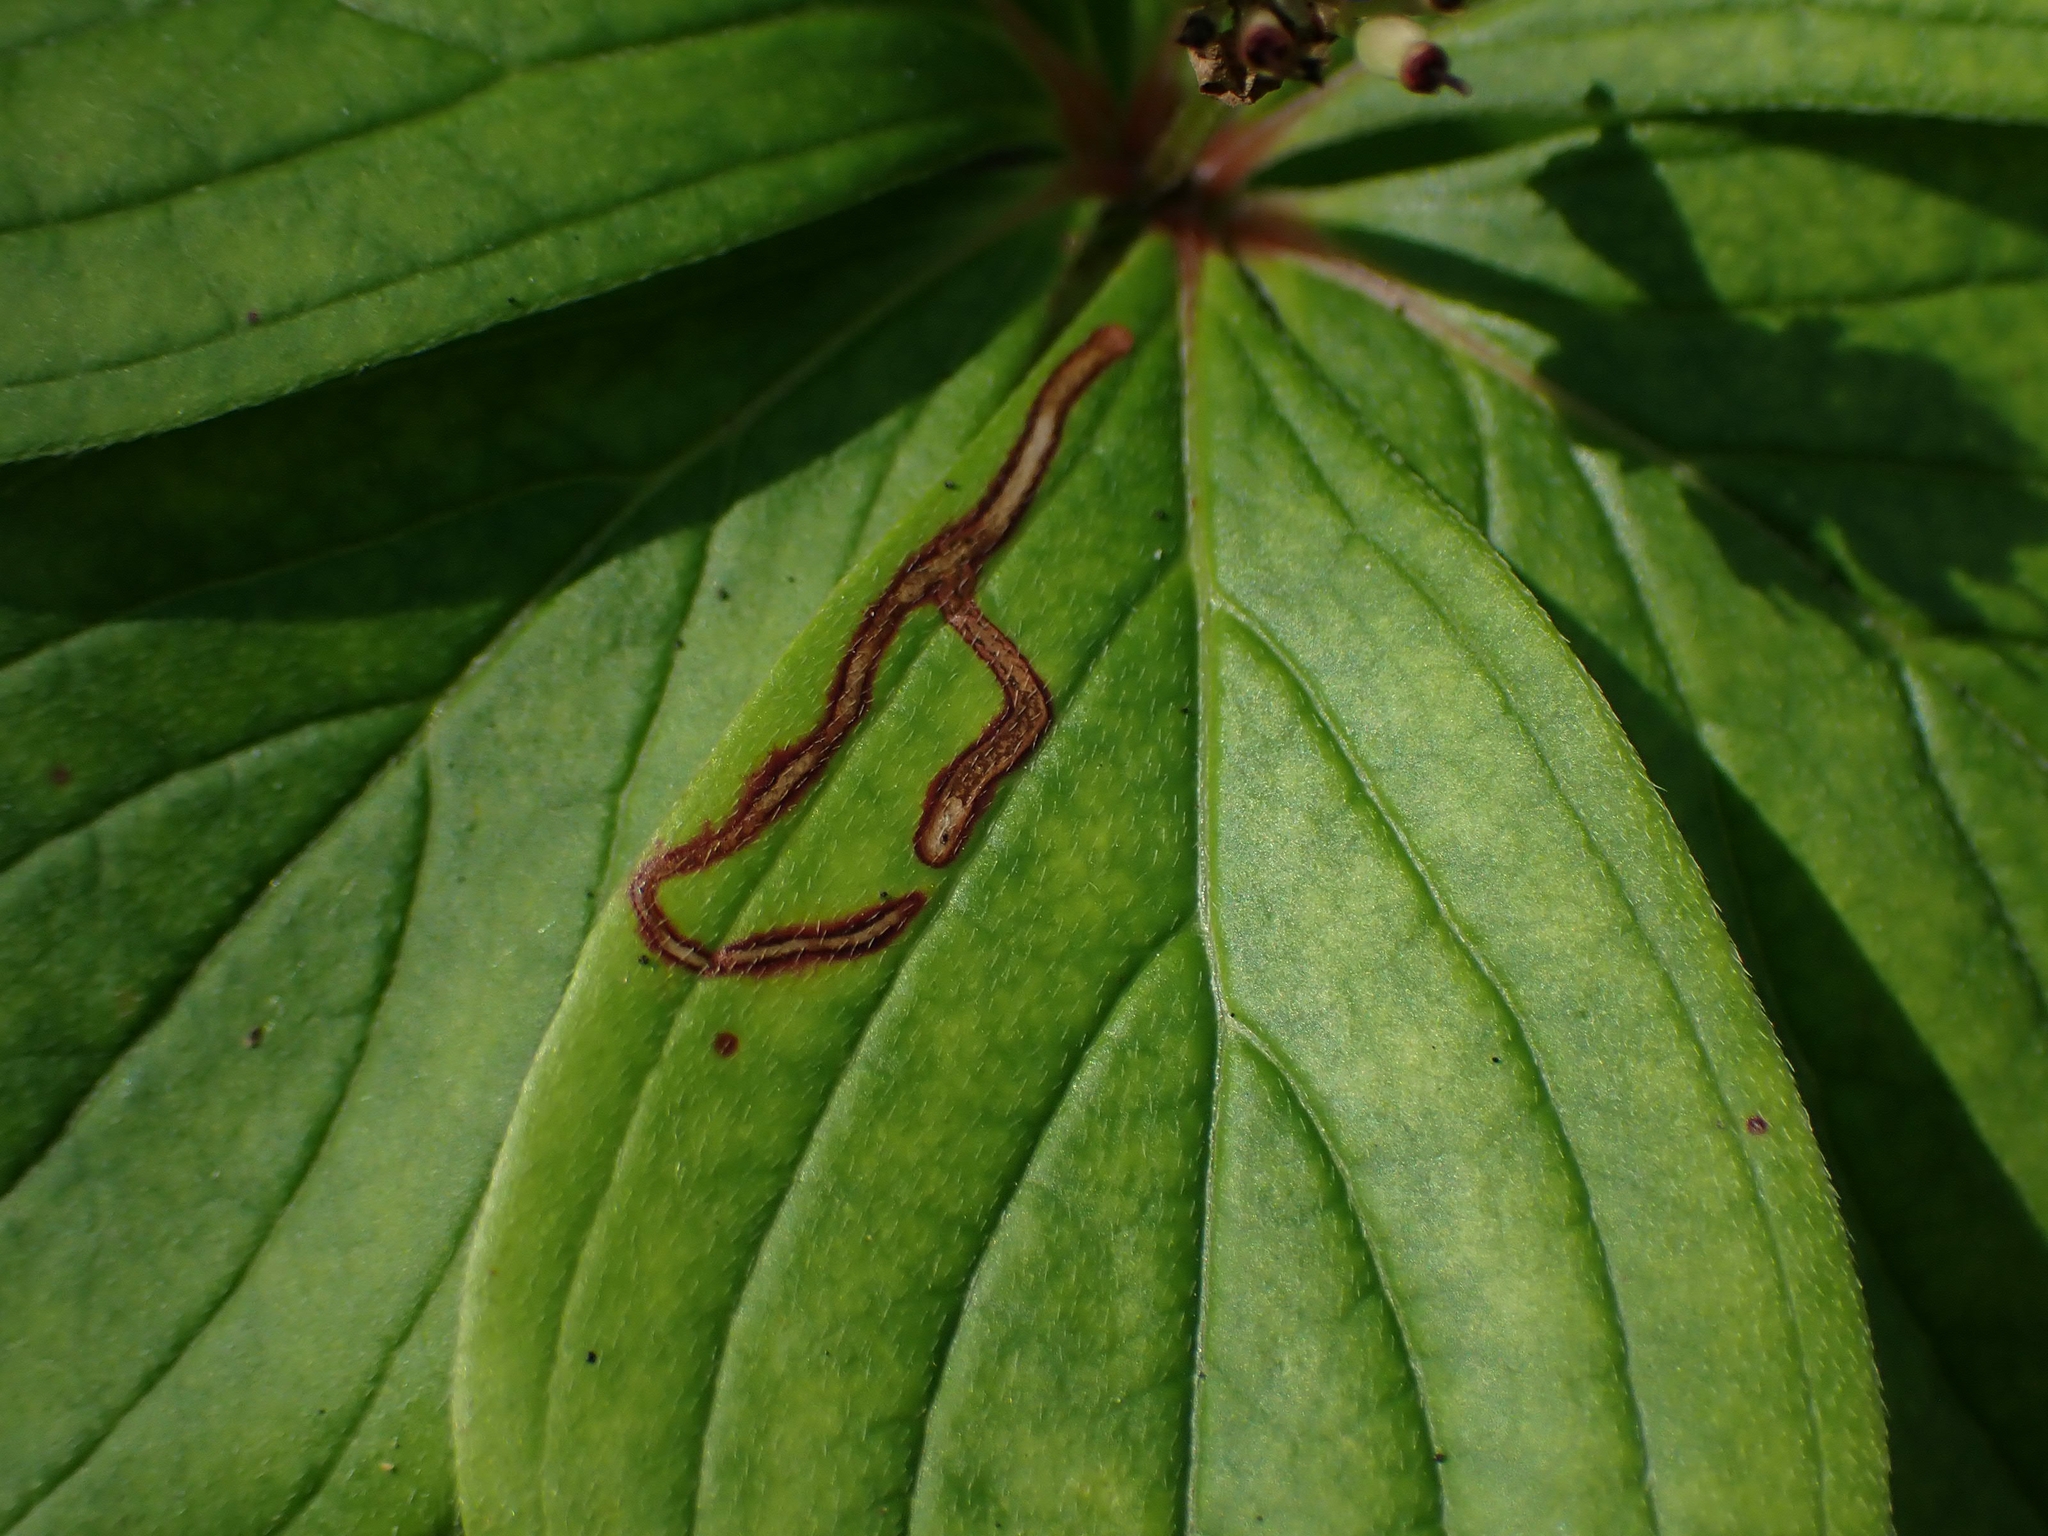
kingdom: Animalia
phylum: Arthropoda
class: Insecta
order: Diptera
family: Agromyzidae
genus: Phytomyza
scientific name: Phytomyza agromyzina
